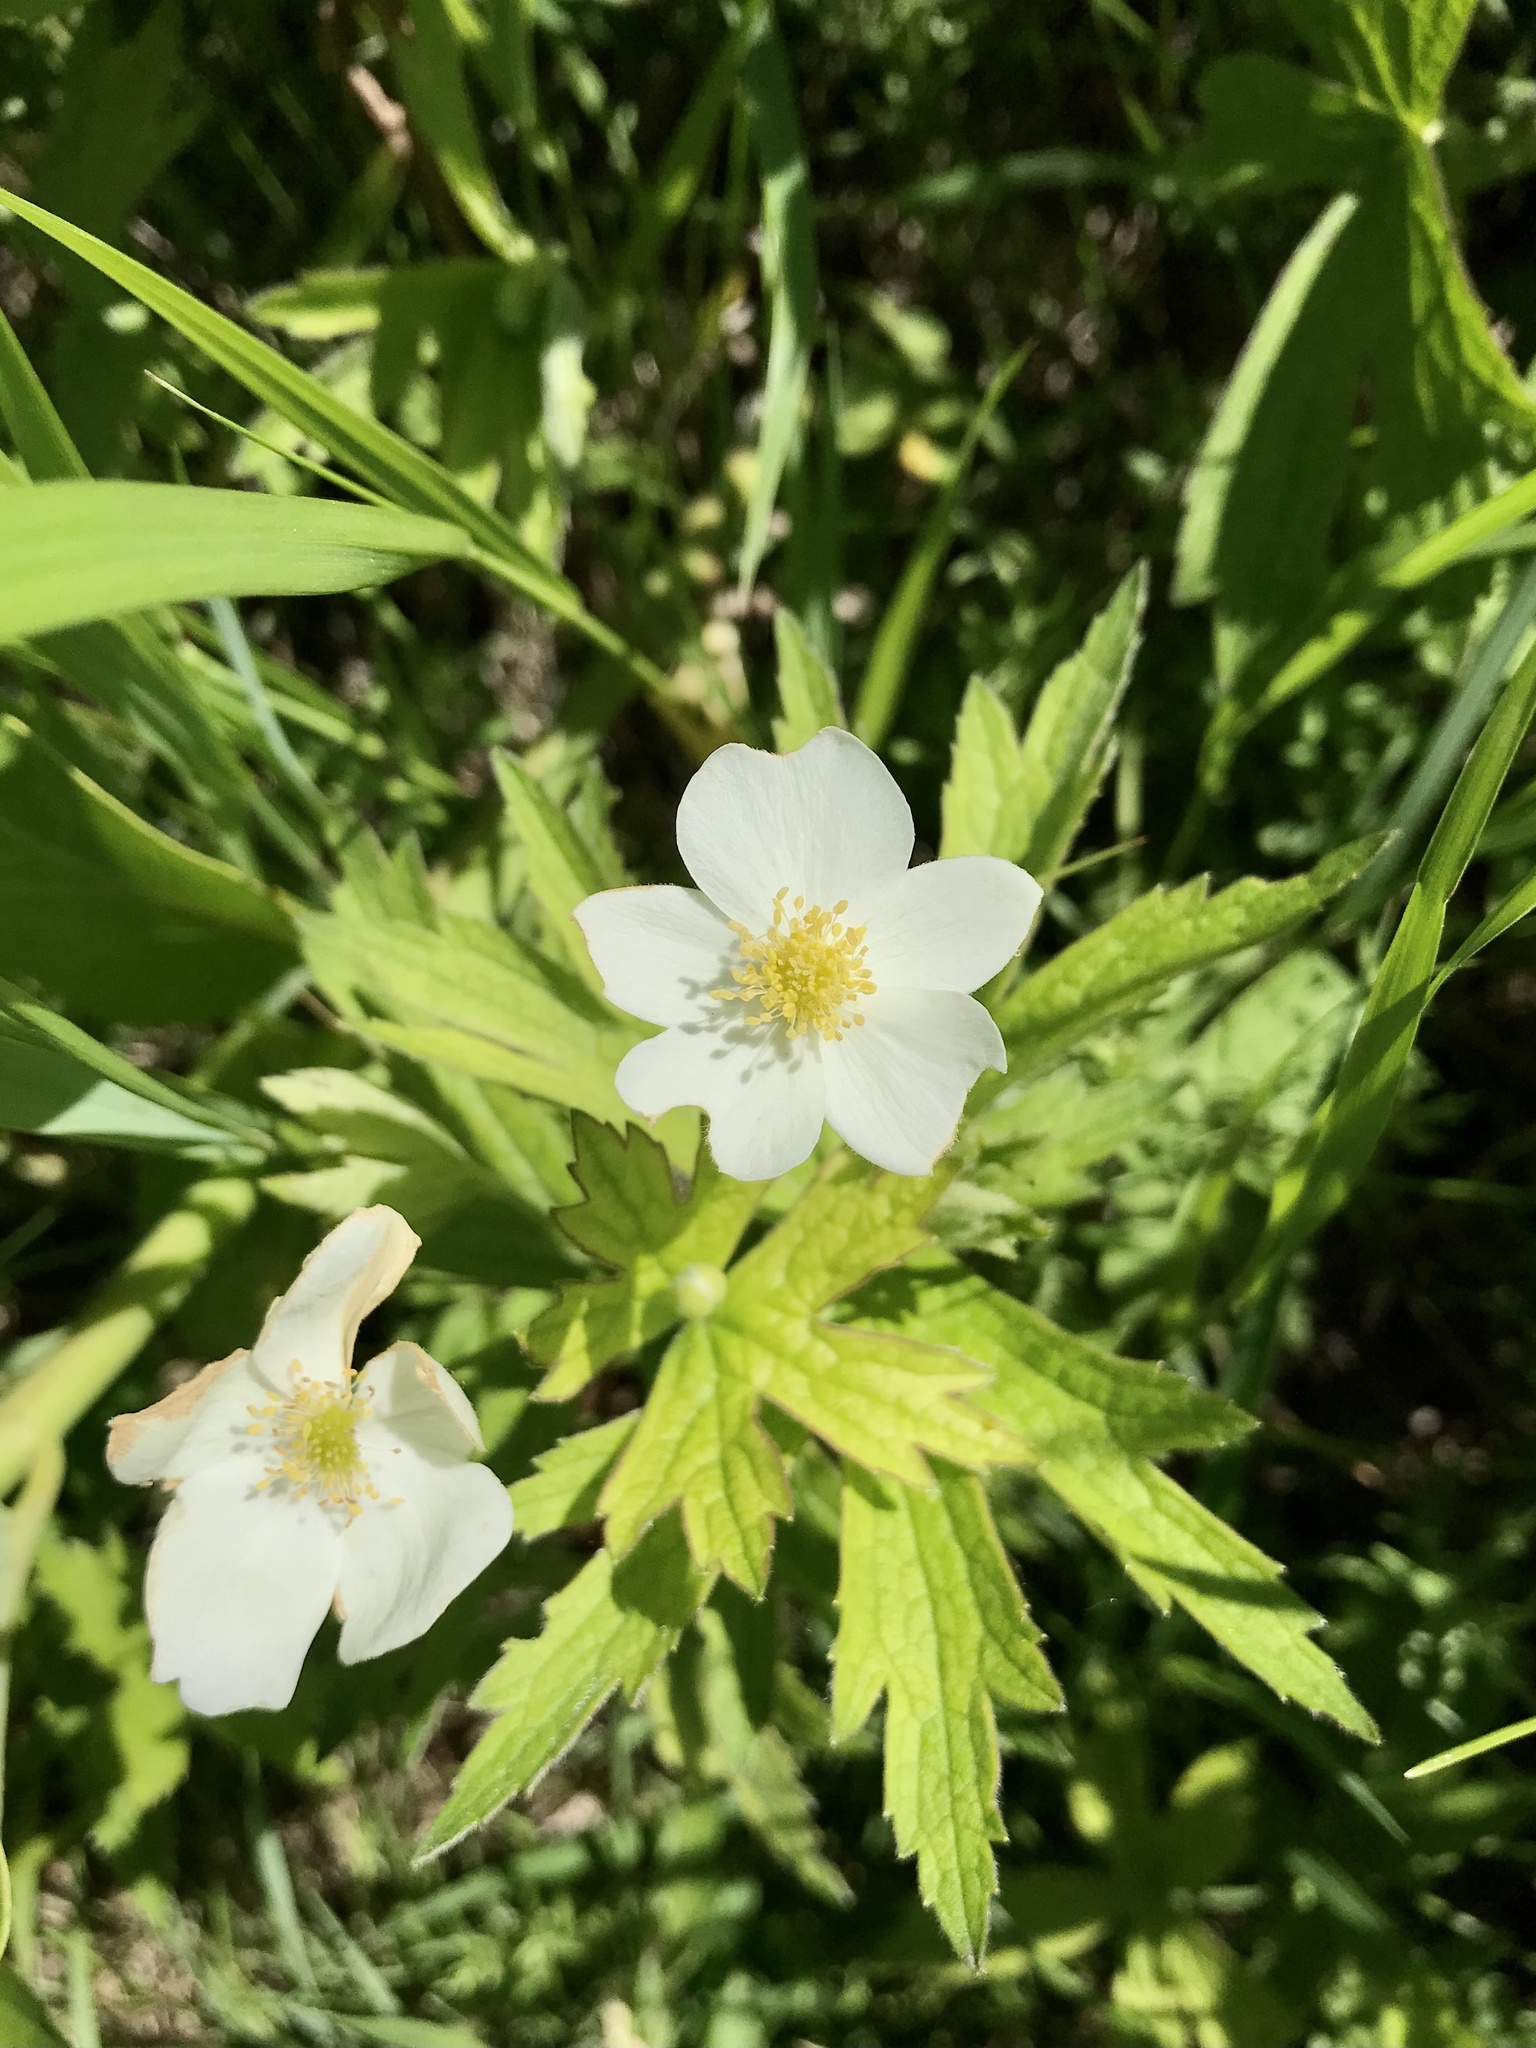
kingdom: Plantae
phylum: Tracheophyta
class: Magnoliopsida
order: Ranunculales
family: Ranunculaceae
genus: Anemonastrum
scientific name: Anemonastrum canadense
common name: Canada anemone
